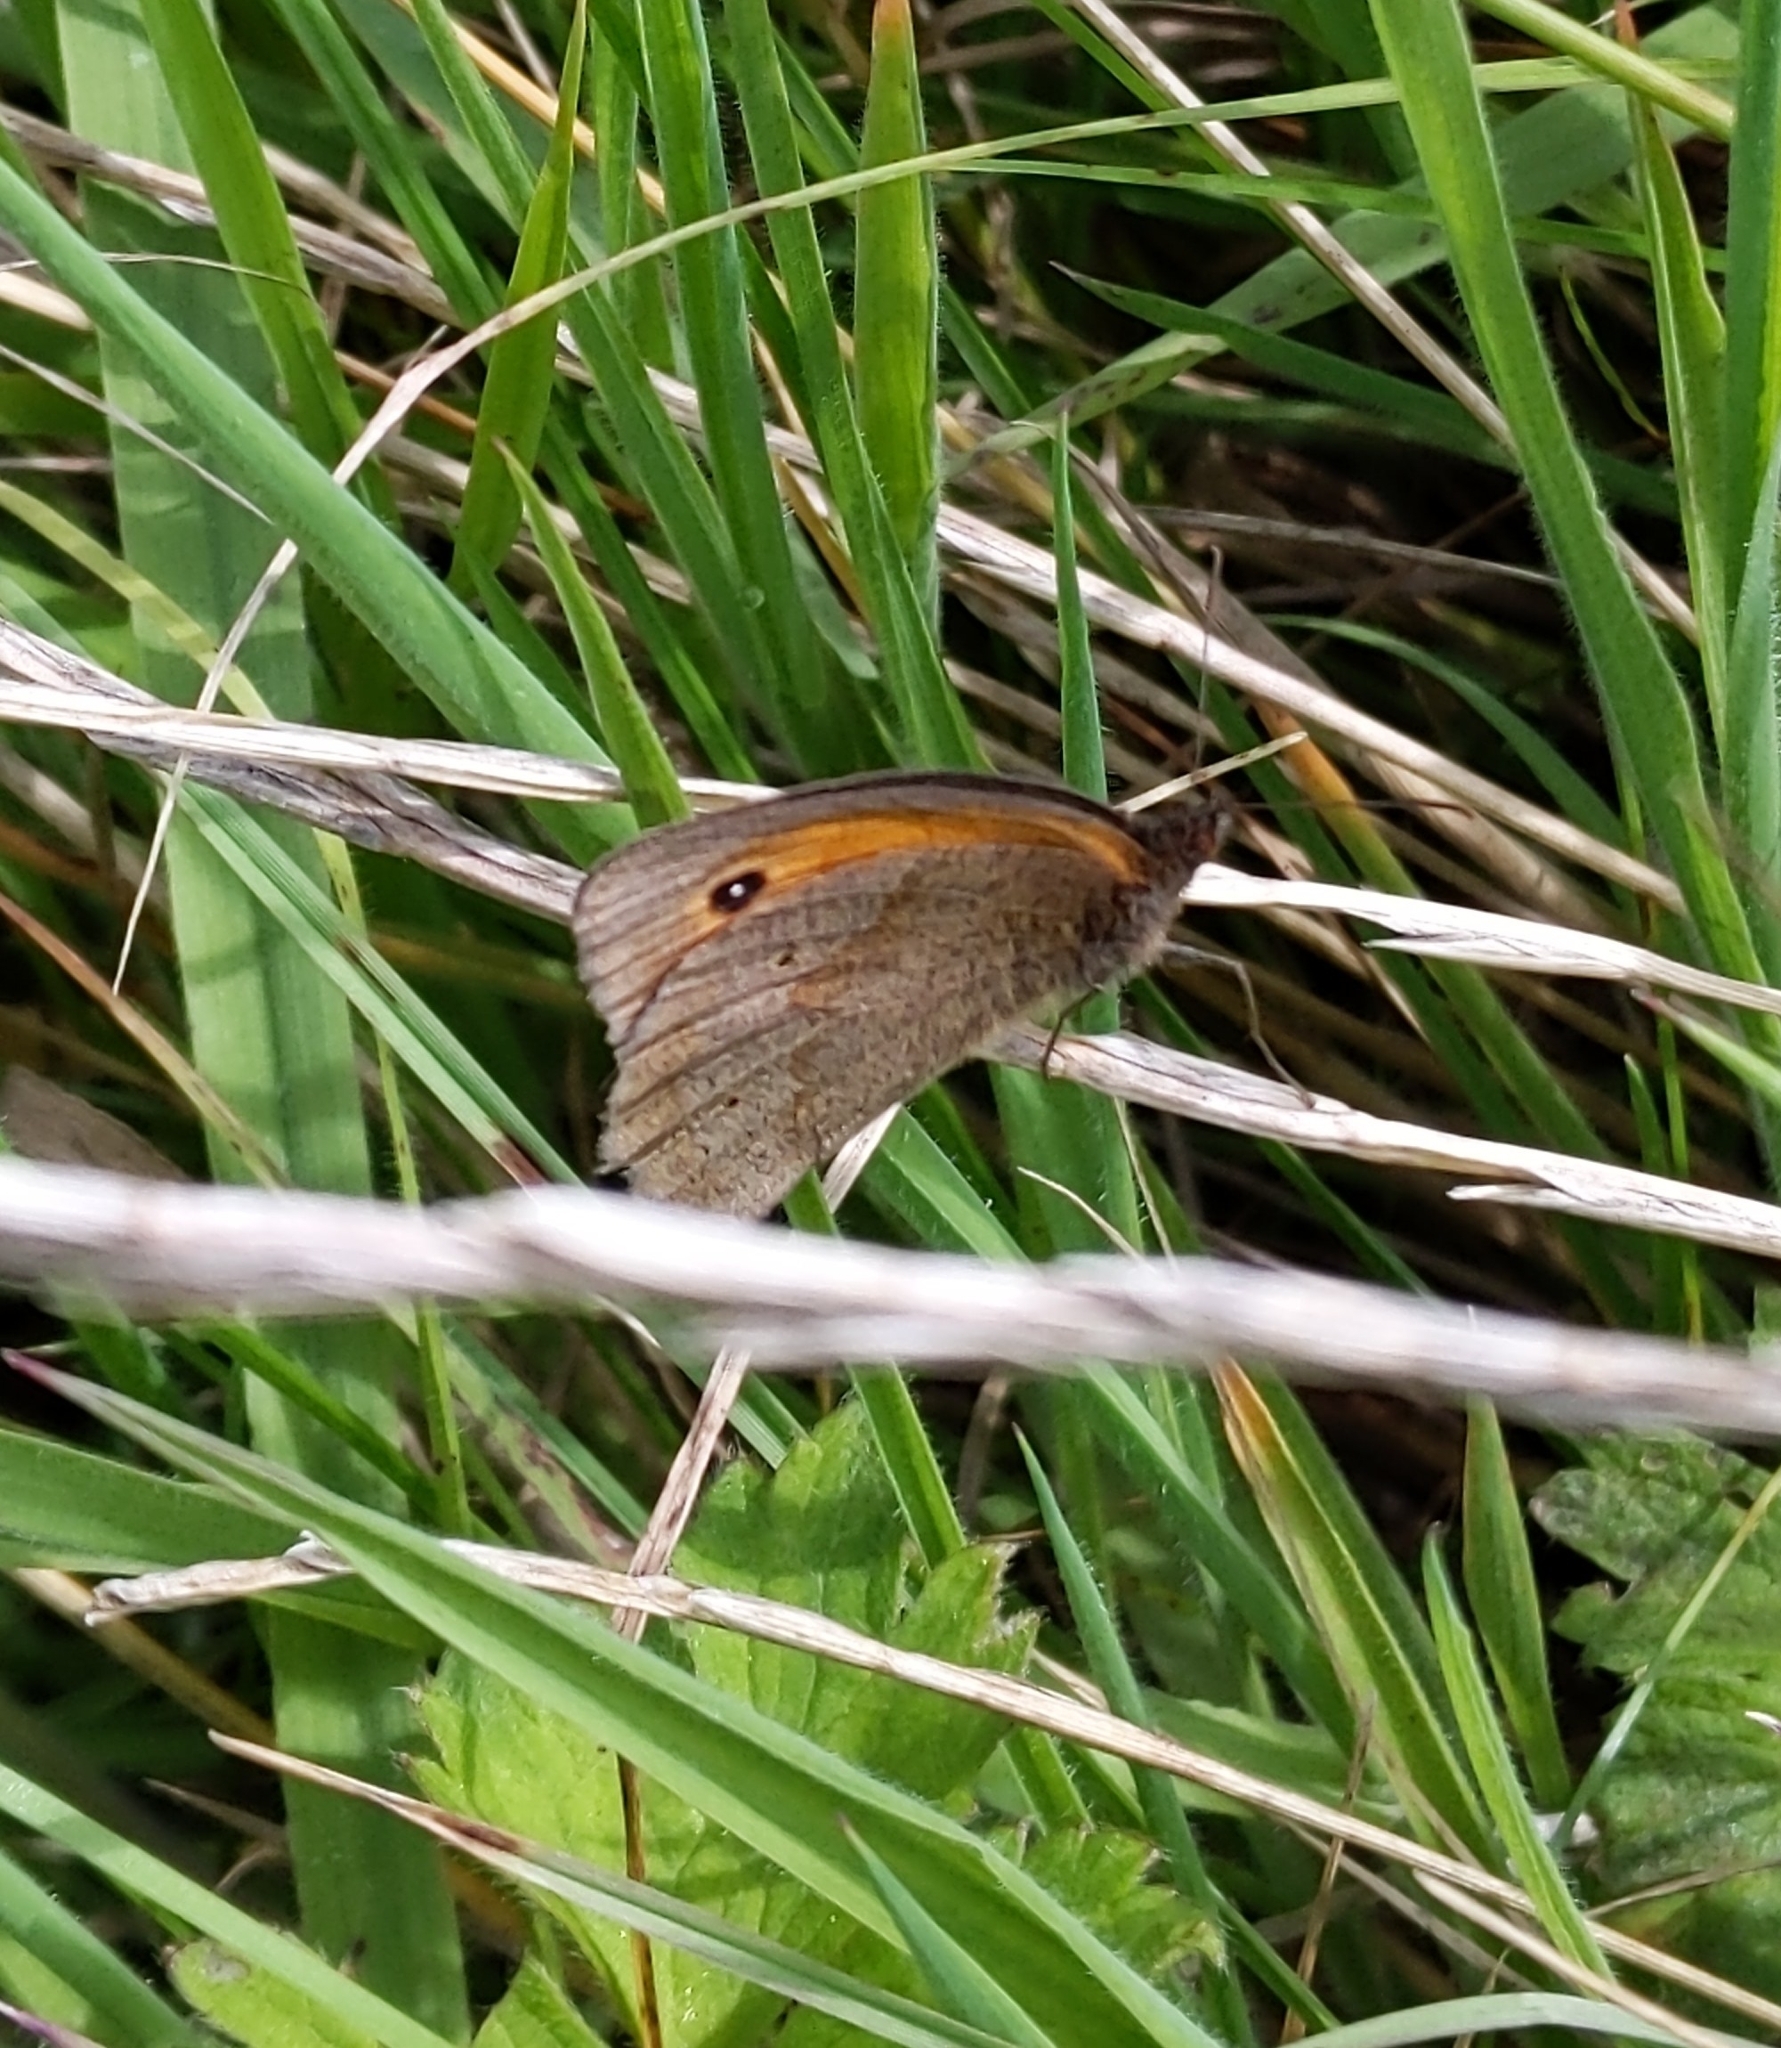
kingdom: Animalia
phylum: Arthropoda
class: Insecta
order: Lepidoptera
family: Nymphalidae
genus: Maniola
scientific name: Maniola jurtina
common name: Meadow brown
